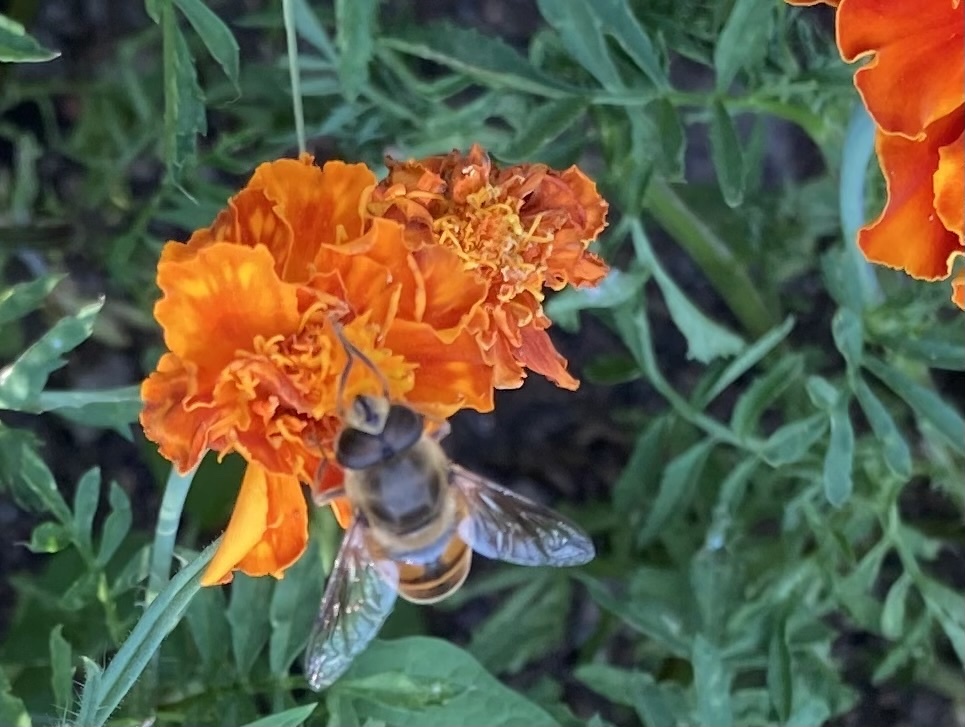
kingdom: Animalia
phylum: Arthropoda
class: Insecta
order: Diptera
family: Syrphidae
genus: Eristalis
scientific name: Eristalis tenax
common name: Drone fly
